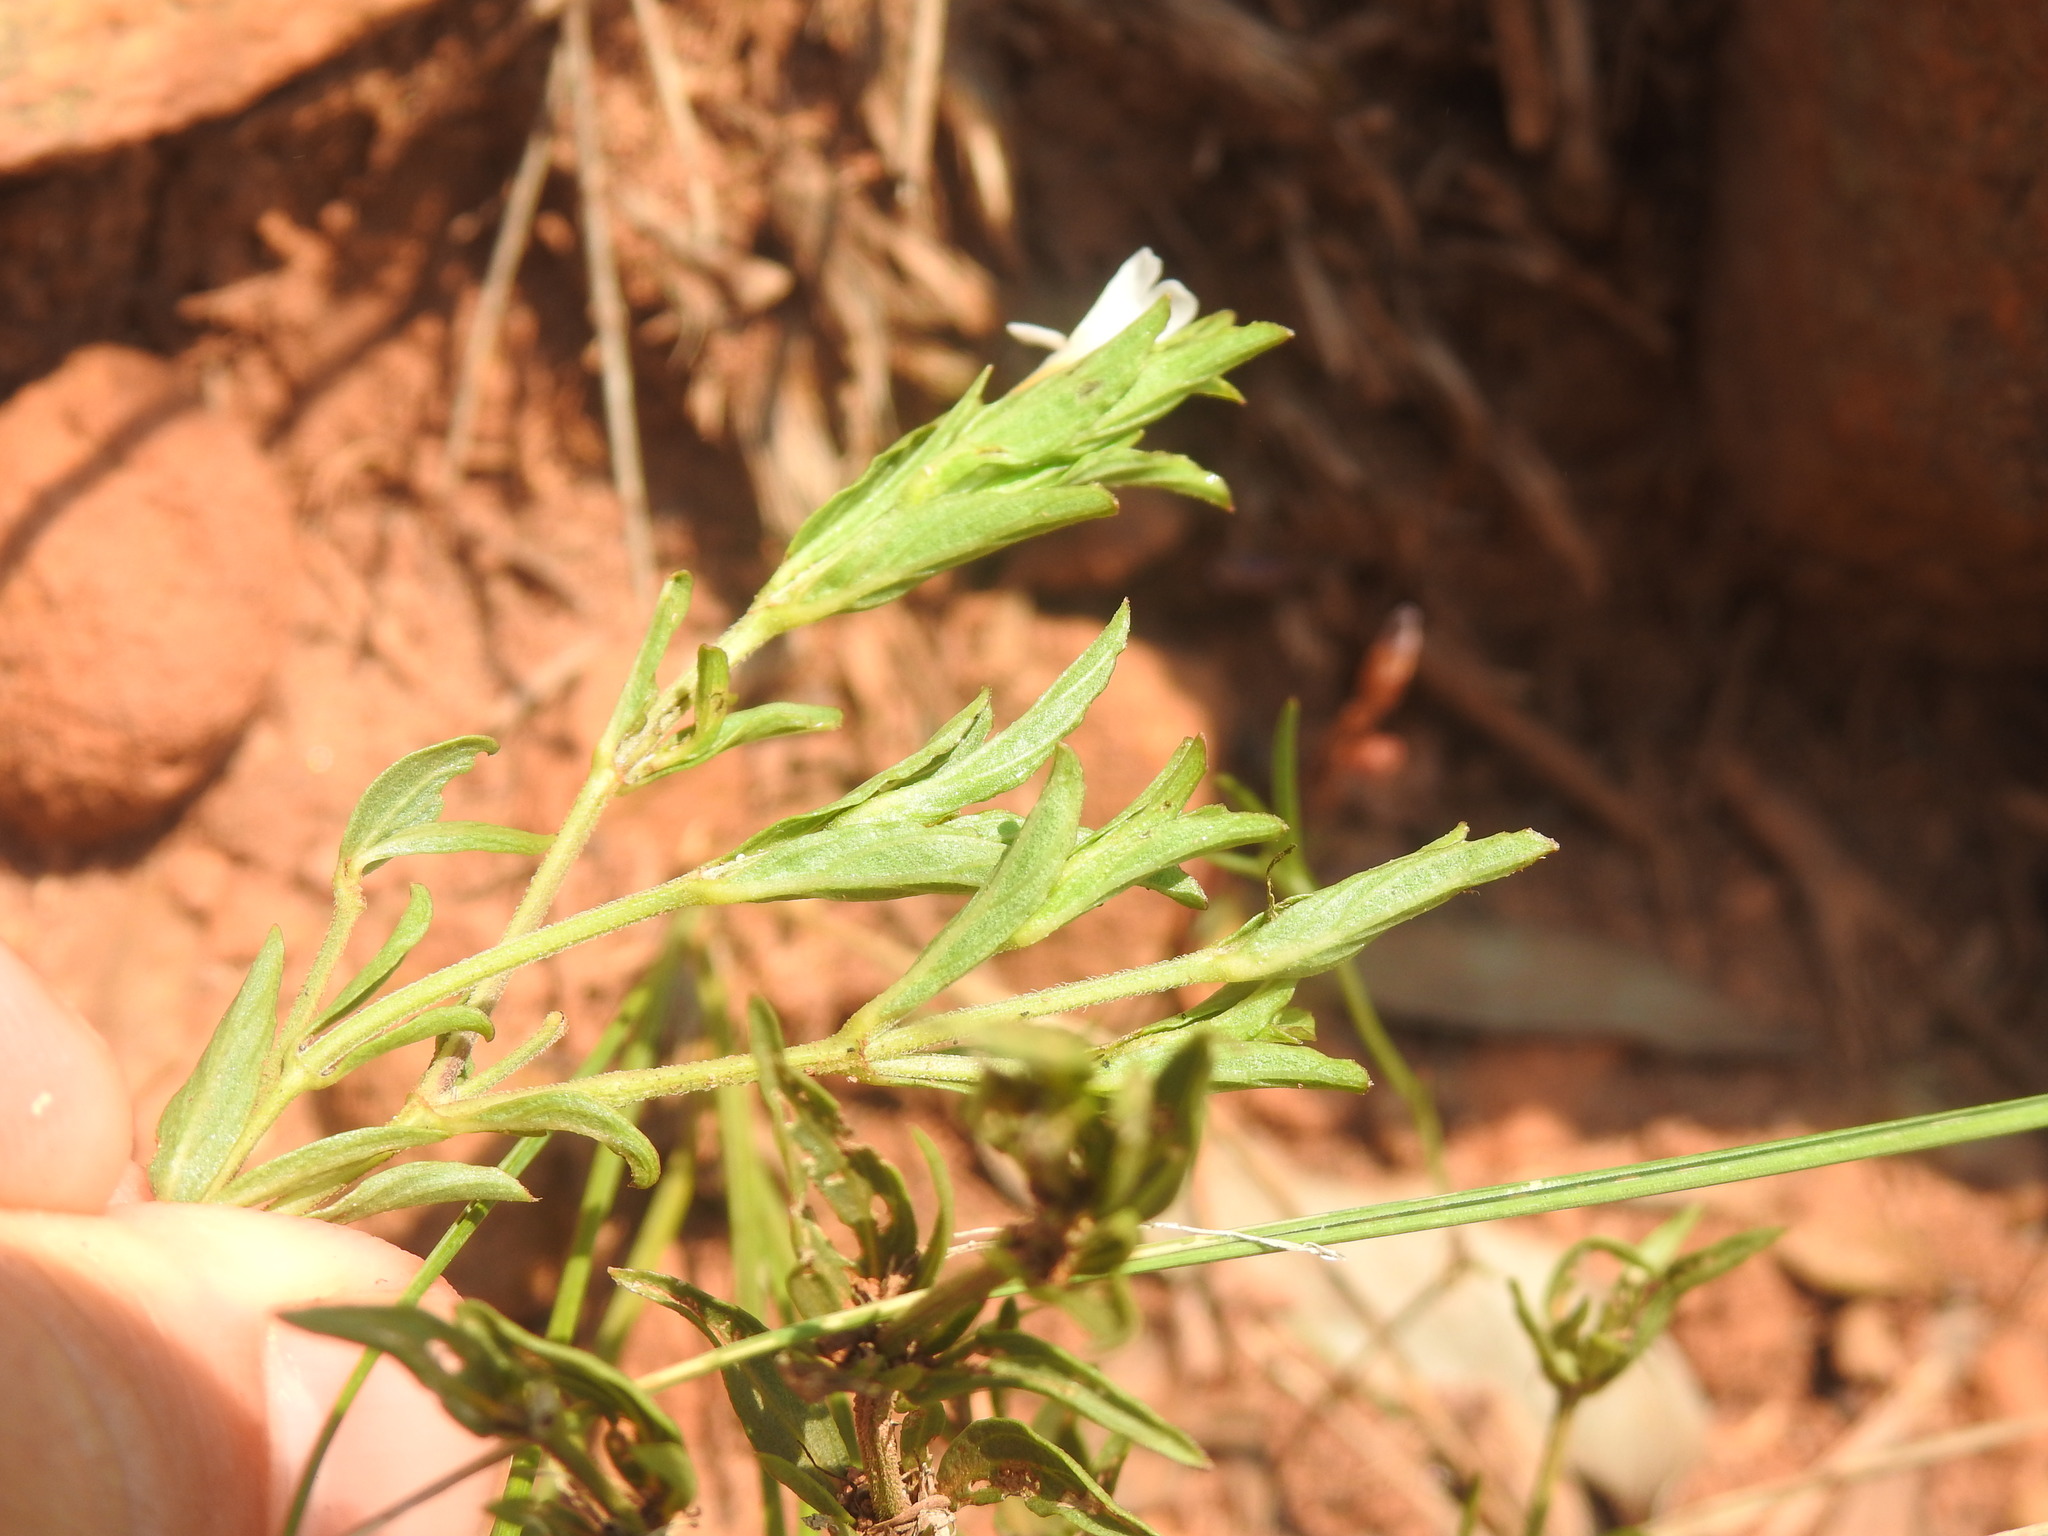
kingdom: Plantae
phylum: Tracheophyta
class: Magnoliopsida
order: Lamiales
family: Acanthaceae
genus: Dyschoriste
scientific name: Dyschoriste costata
